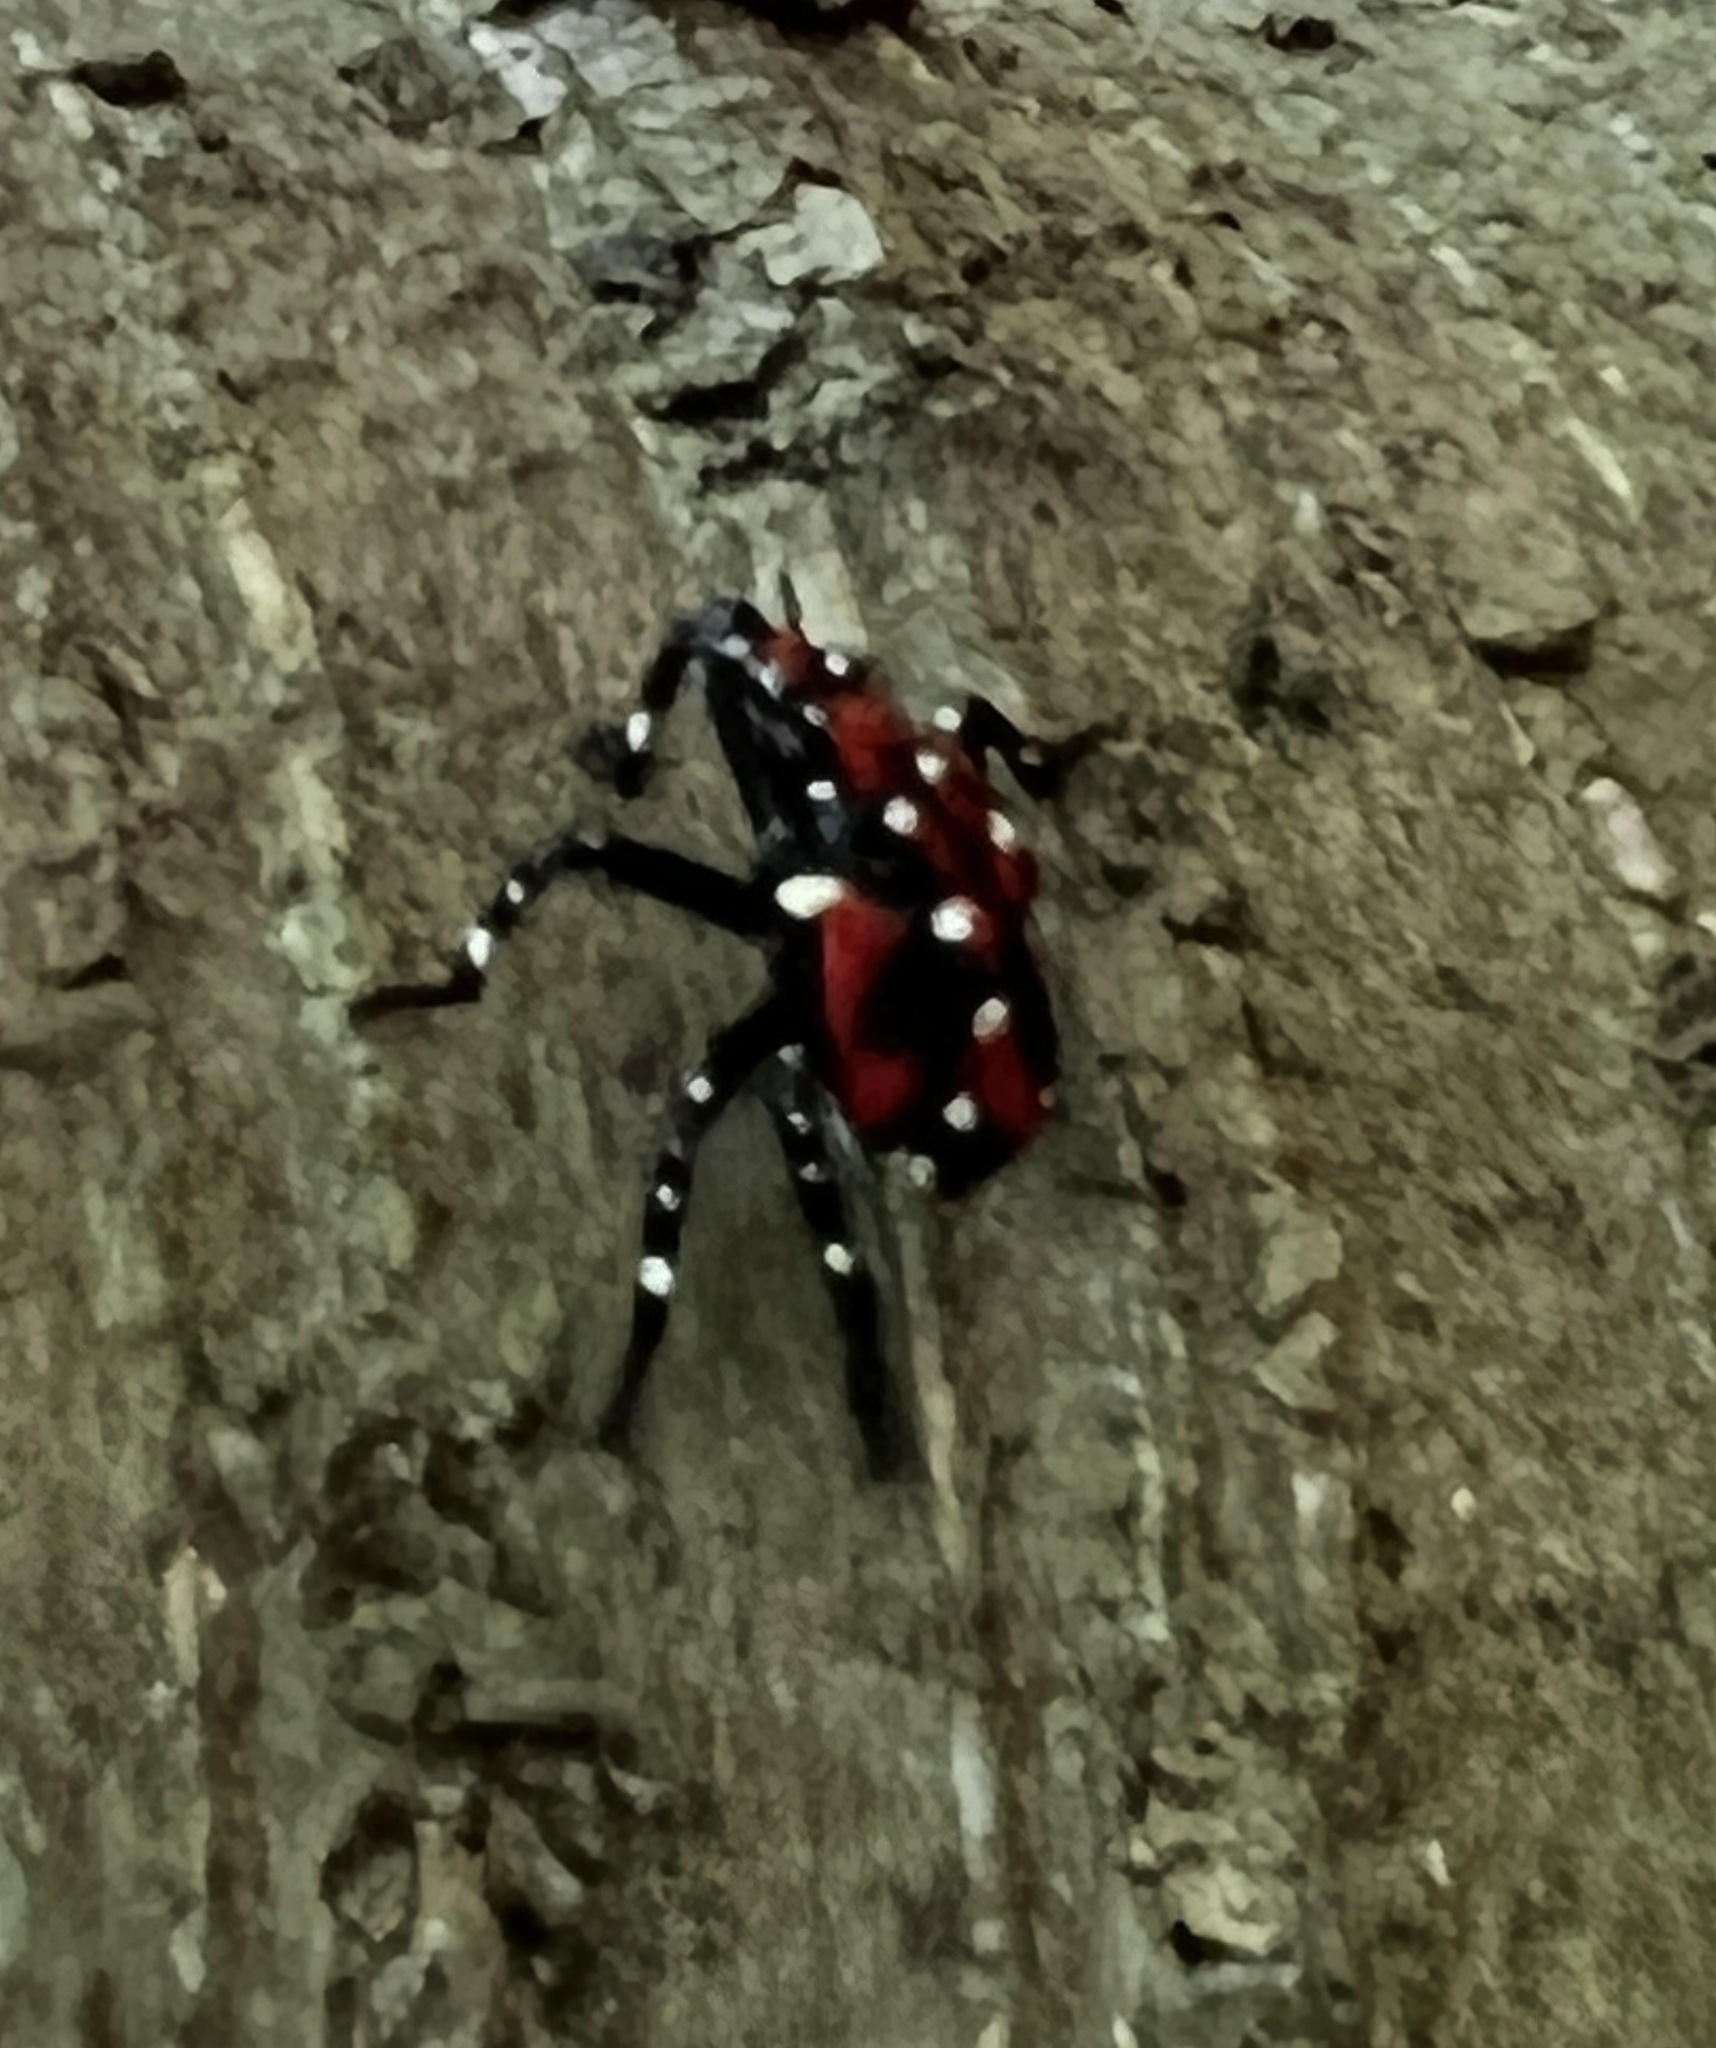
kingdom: Animalia
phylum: Arthropoda
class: Insecta
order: Hemiptera
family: Fulgoridae
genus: Lycorma
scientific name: Lycorma delicatula
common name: Spotted lanternfly
